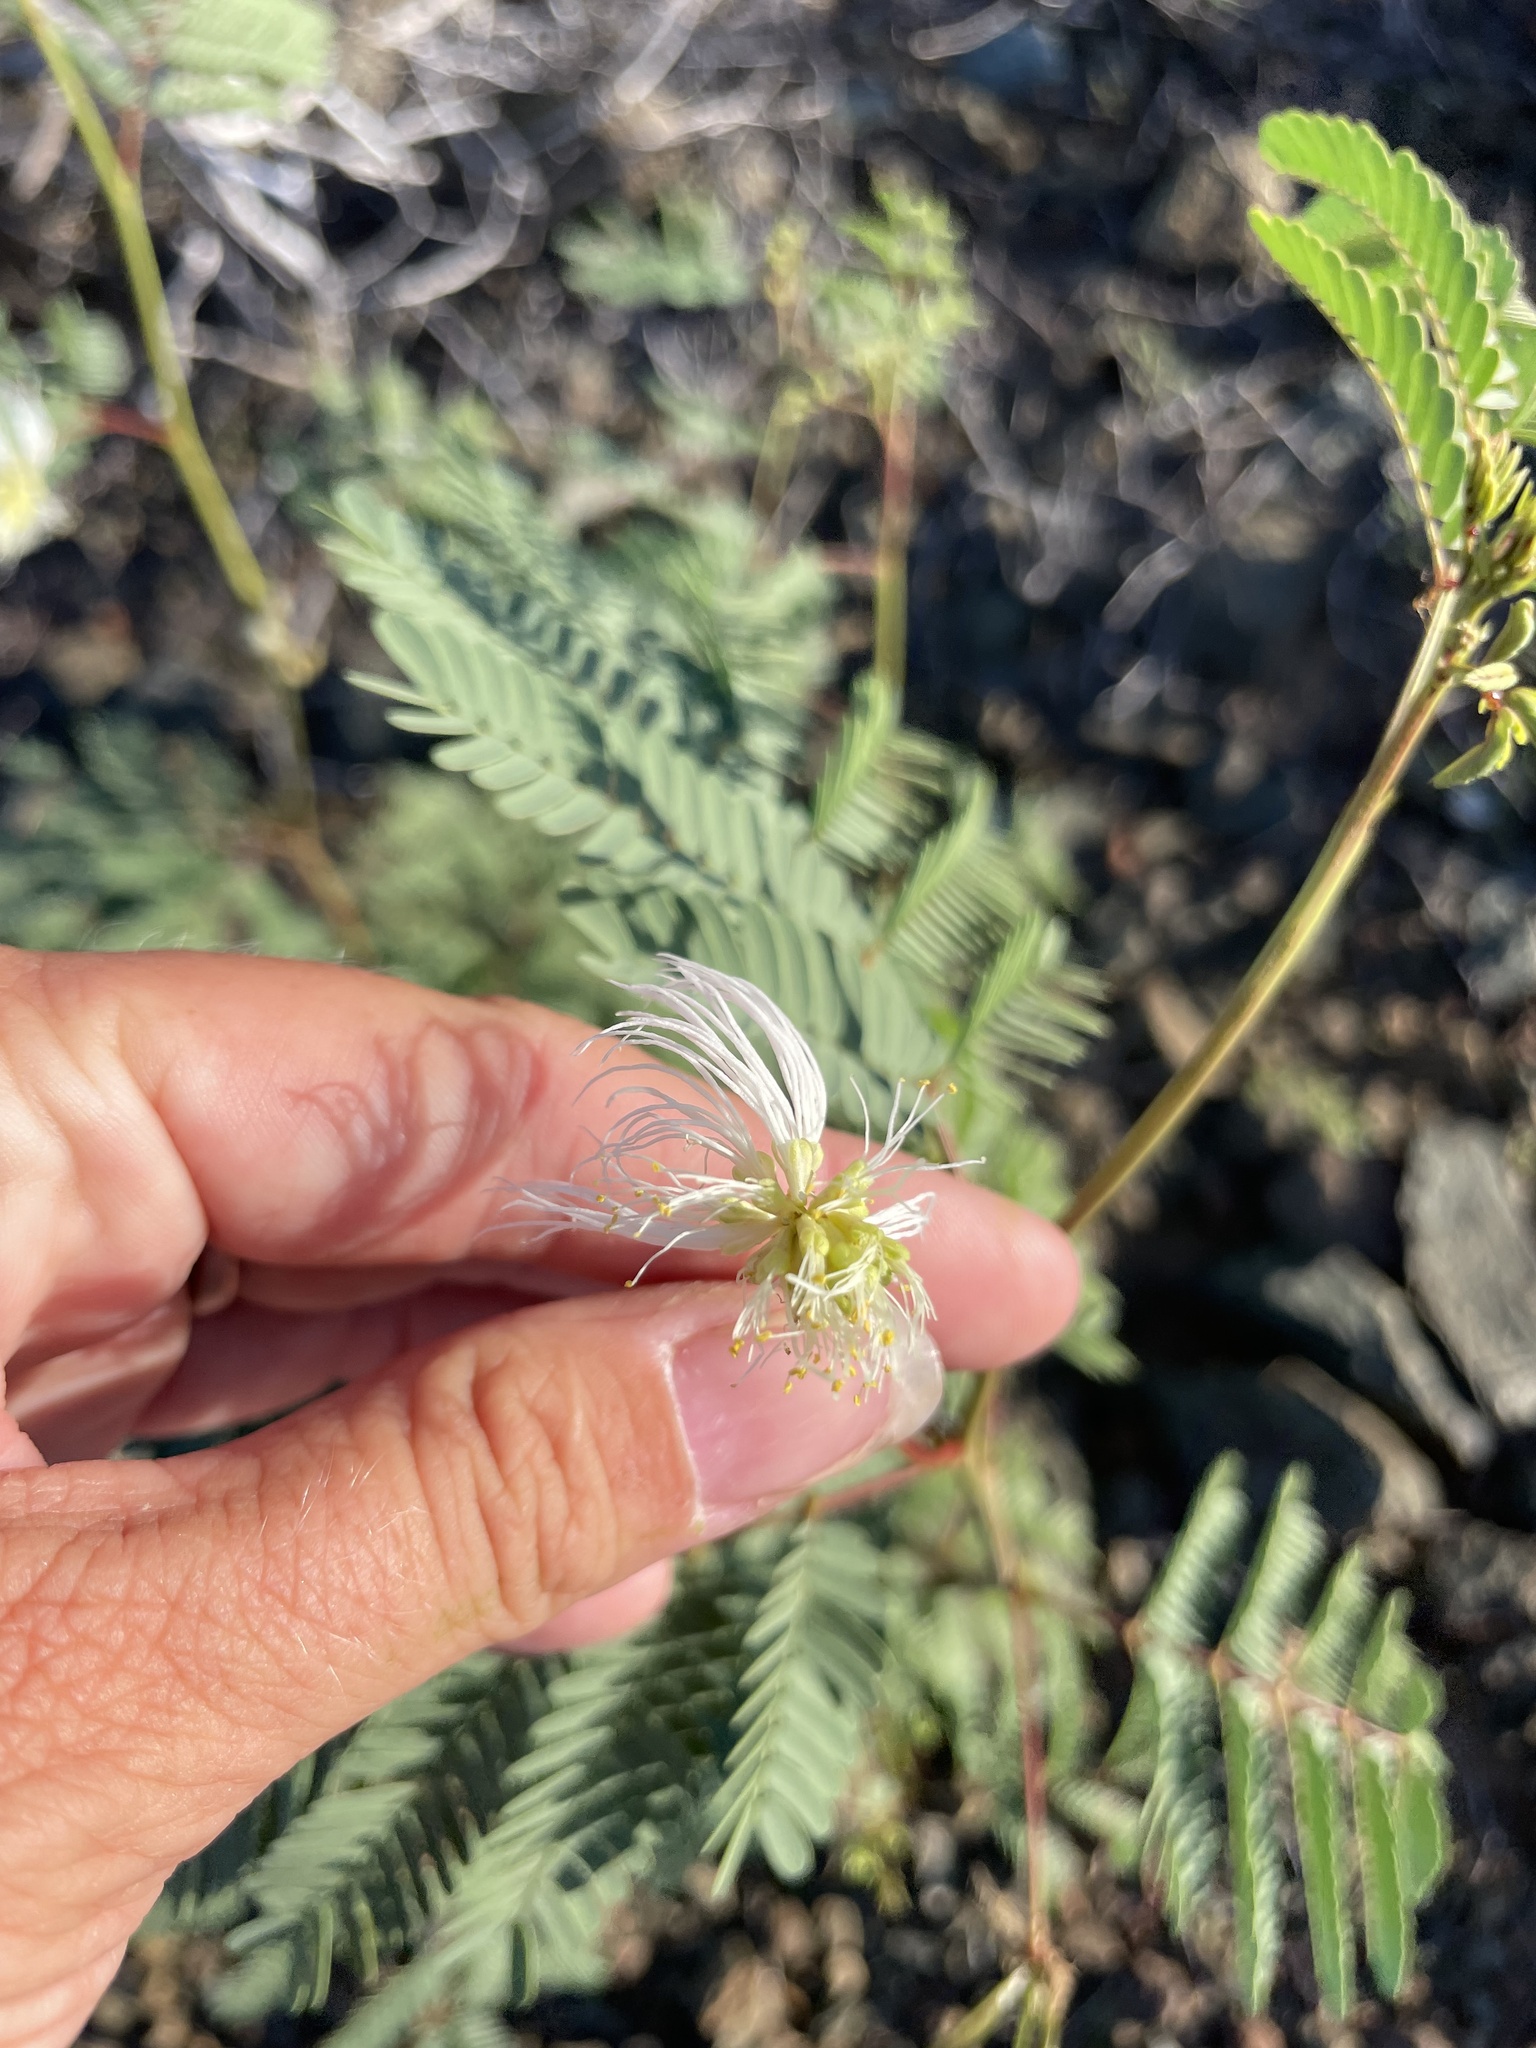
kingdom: Plantae
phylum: Tracheophyta
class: Magnoliopsida
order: Fabales
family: Fabaceae
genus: Desmanthus
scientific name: Desmanthus fruticosus
